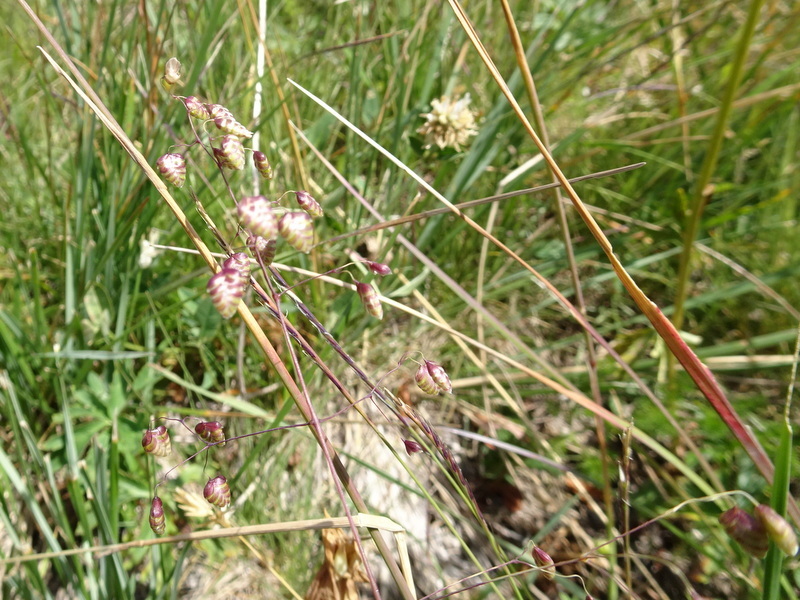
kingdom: Plantae
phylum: Tracheophyta
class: Liliopsida
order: Poales
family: Poaceae
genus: Briza
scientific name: Briza media
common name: Quaking grass
